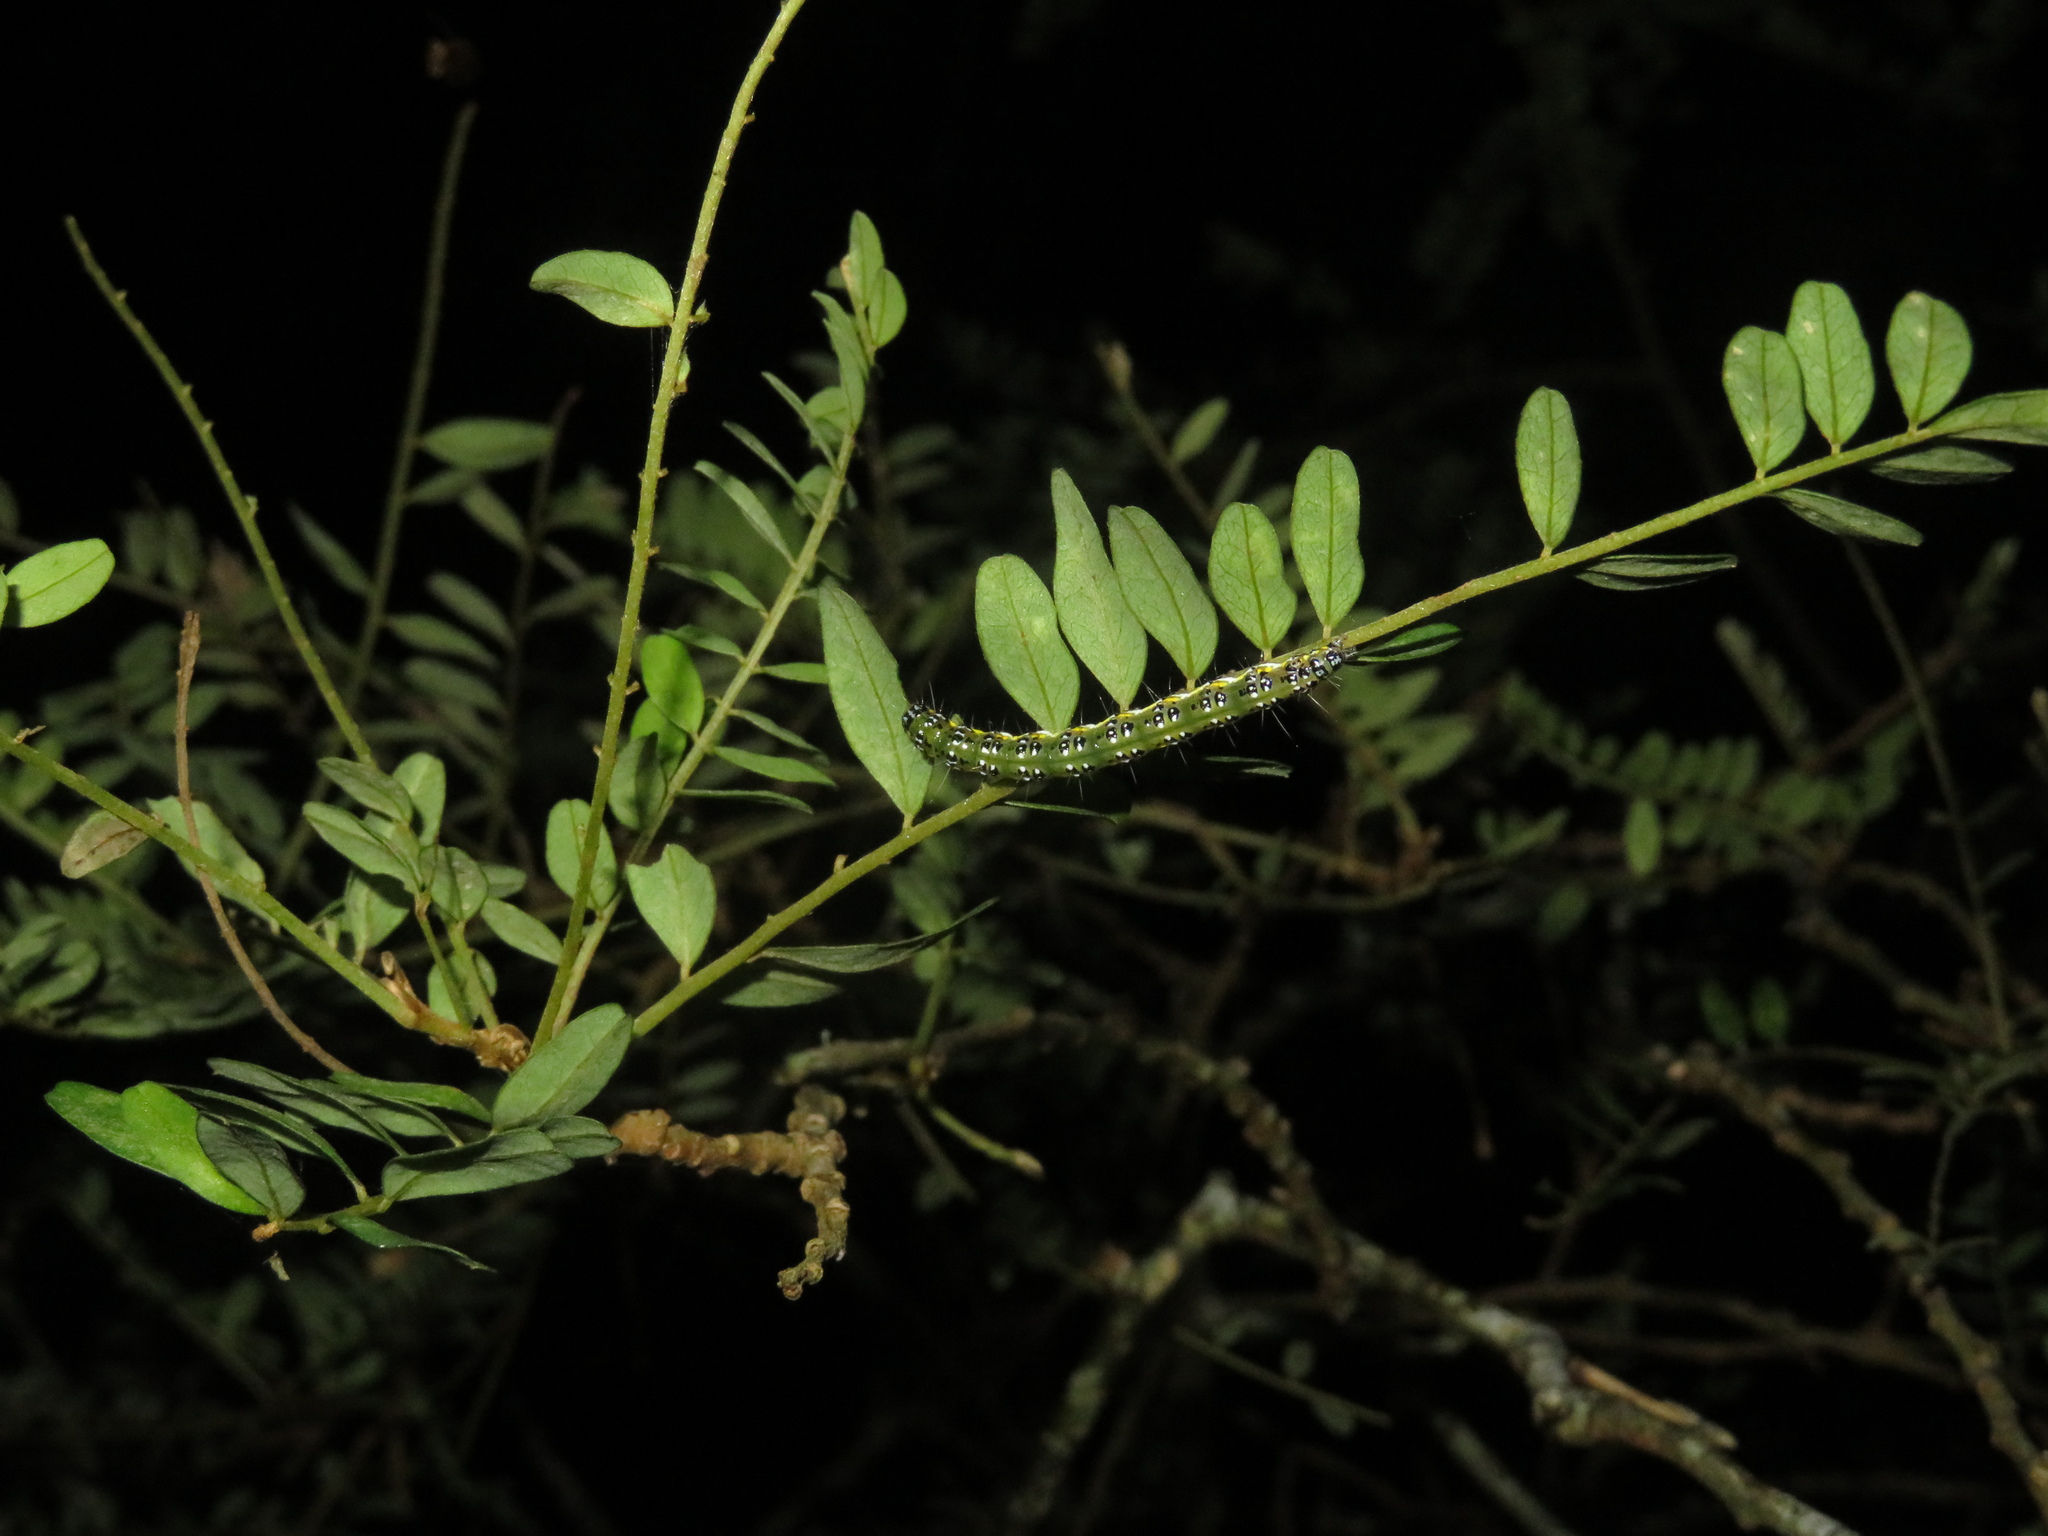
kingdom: Animalia
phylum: Arthropoda
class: Insecta
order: Lepidoptera
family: Crambidae
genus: Uresiphita
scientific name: Uresiphita
